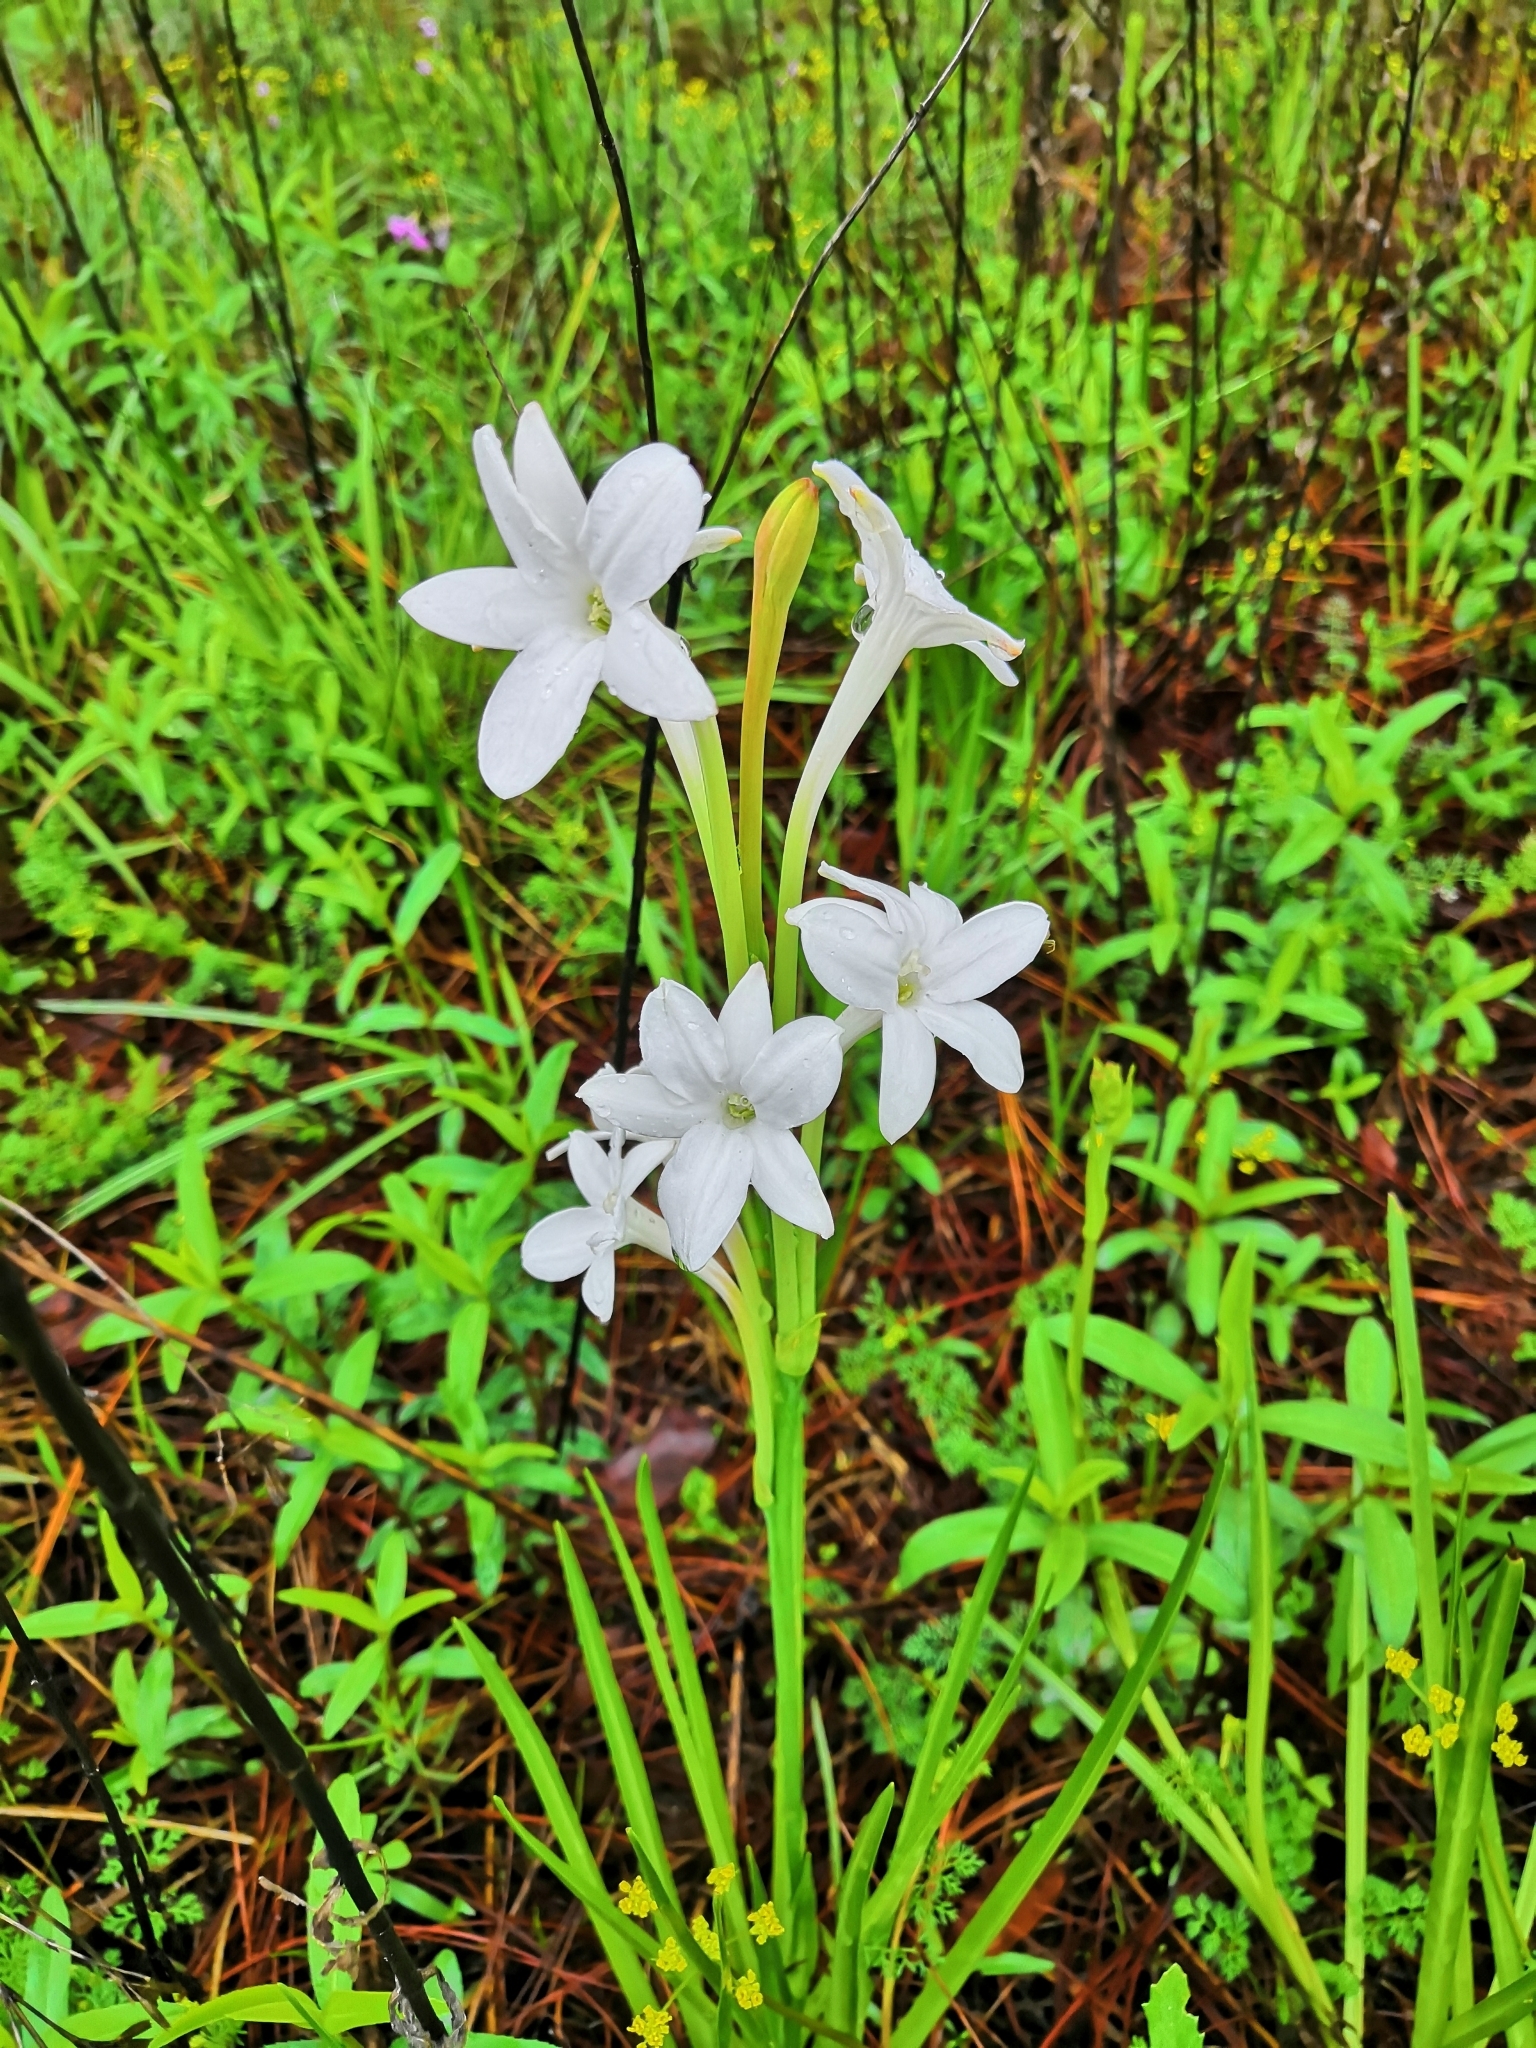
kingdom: Plantae
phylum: Tracheophyta
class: Liliopsida
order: Asparagales
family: Asparagaceae
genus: Agave
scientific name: Agave dolichantha
